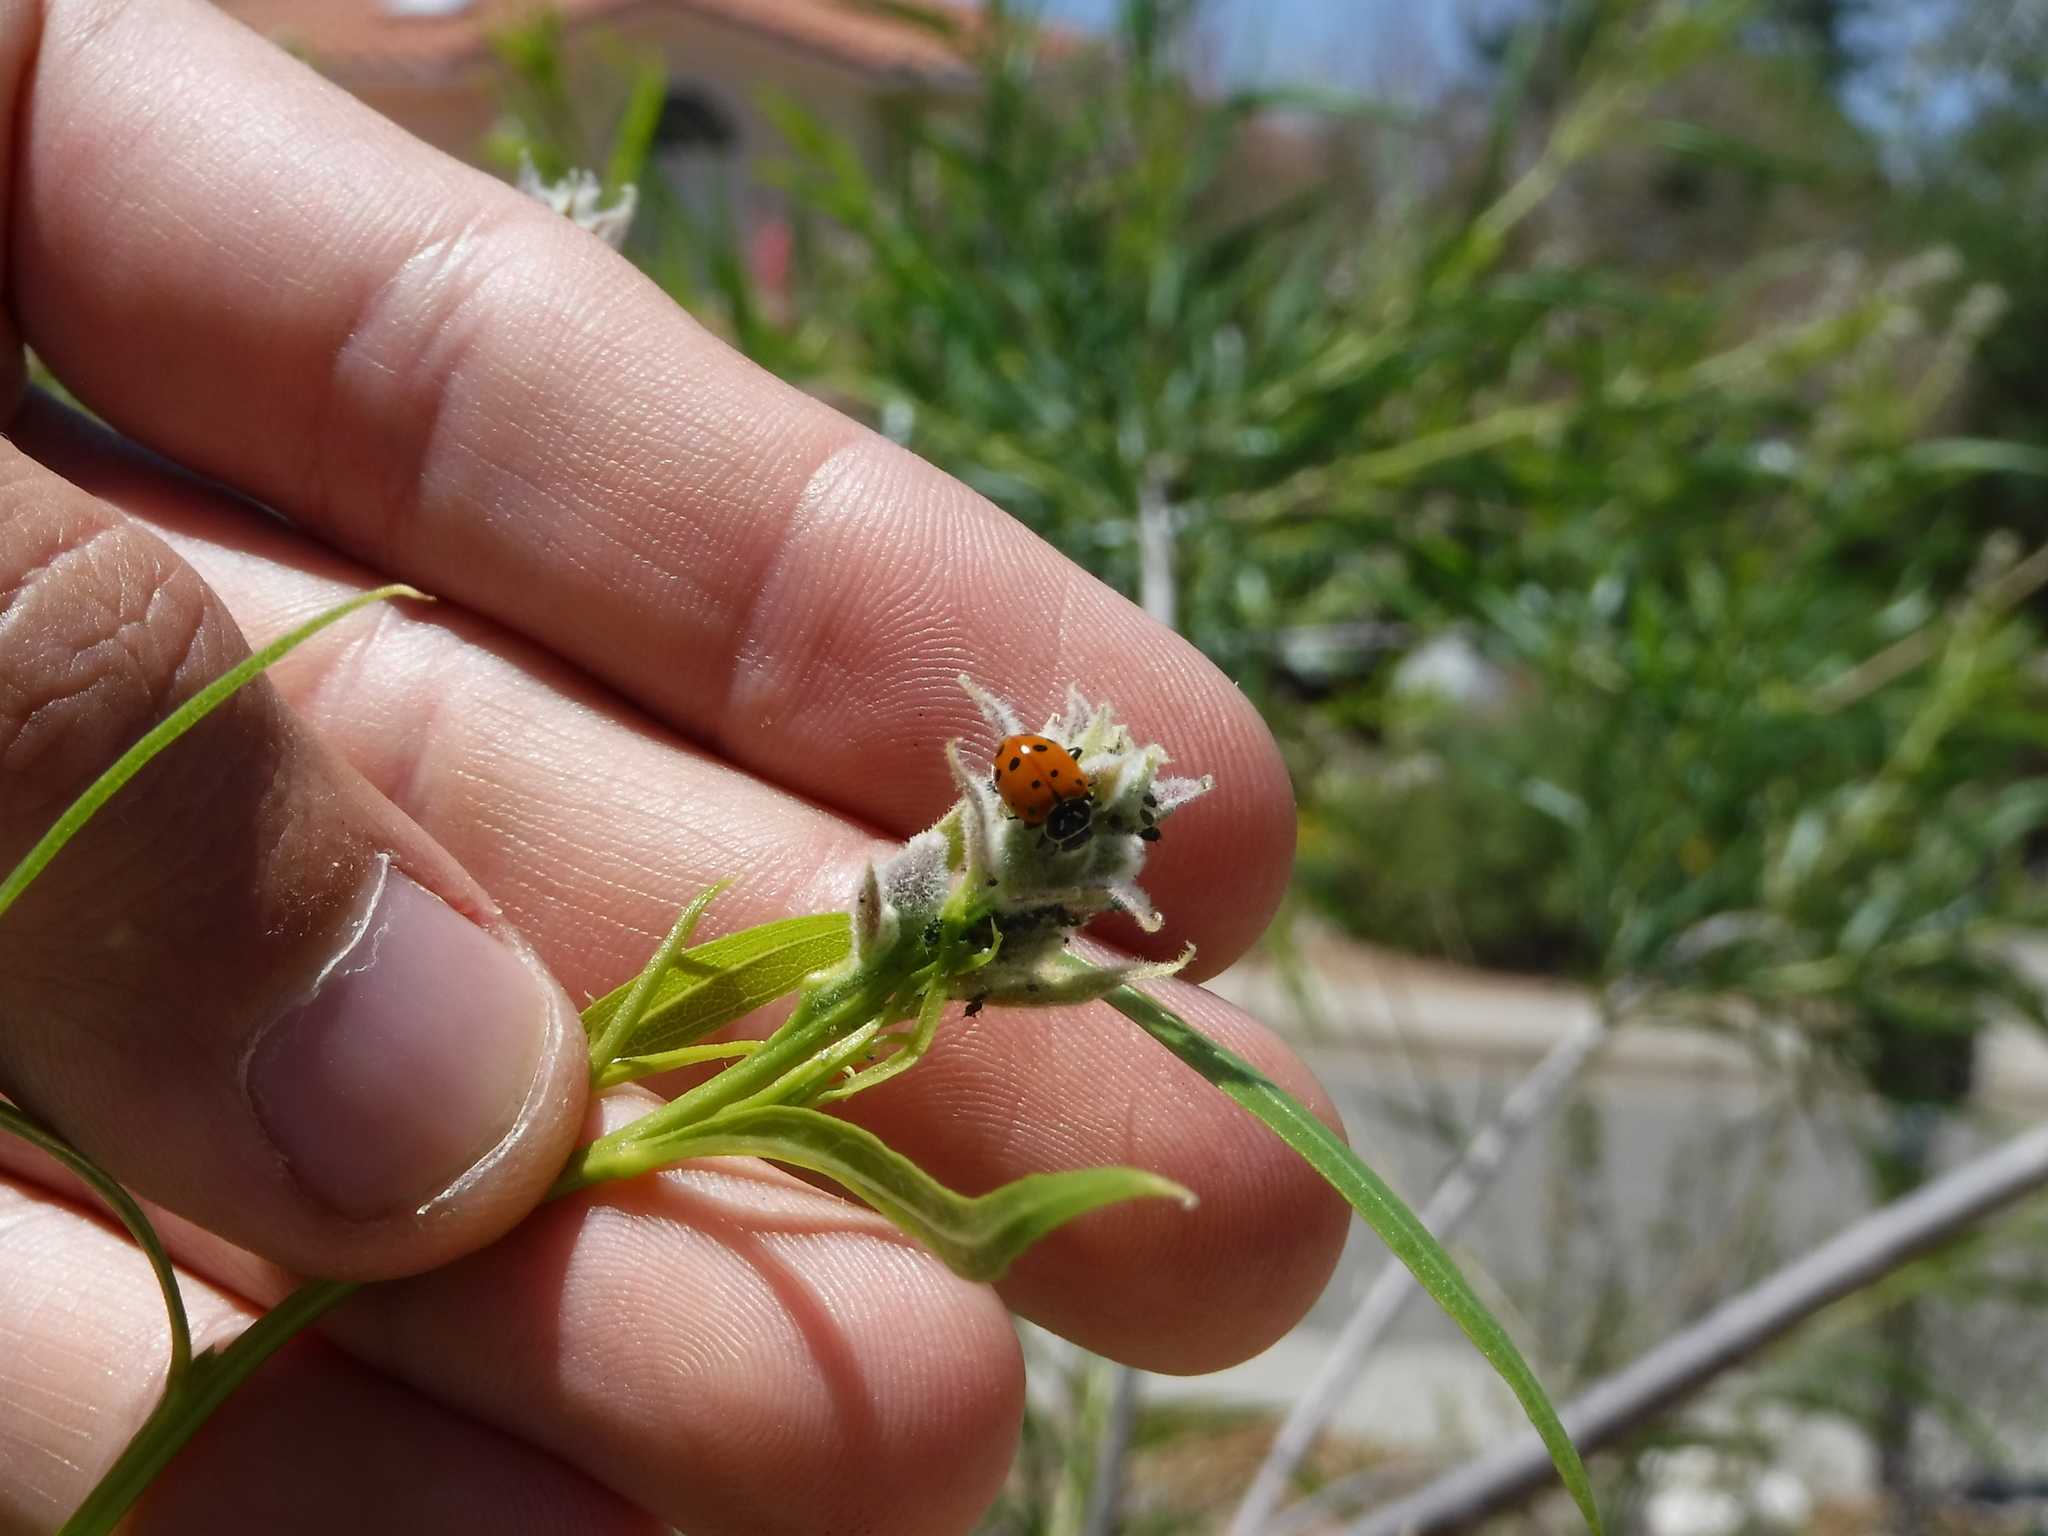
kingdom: Animalia
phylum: Arthropoda
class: Insecta
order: Coleoptera
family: Coccinellidae
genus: Hippodamia
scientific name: Hippodamia convergens
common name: Convergent lady beetle
